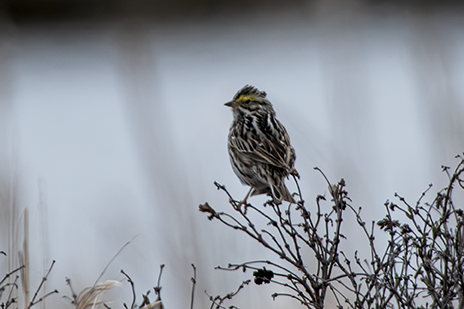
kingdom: Animalia
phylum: Chordata
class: Aves
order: Passeriformes
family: Passerellidae
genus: Passerculus
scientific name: Passerculus sandwichensis
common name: Savannah sparrow
